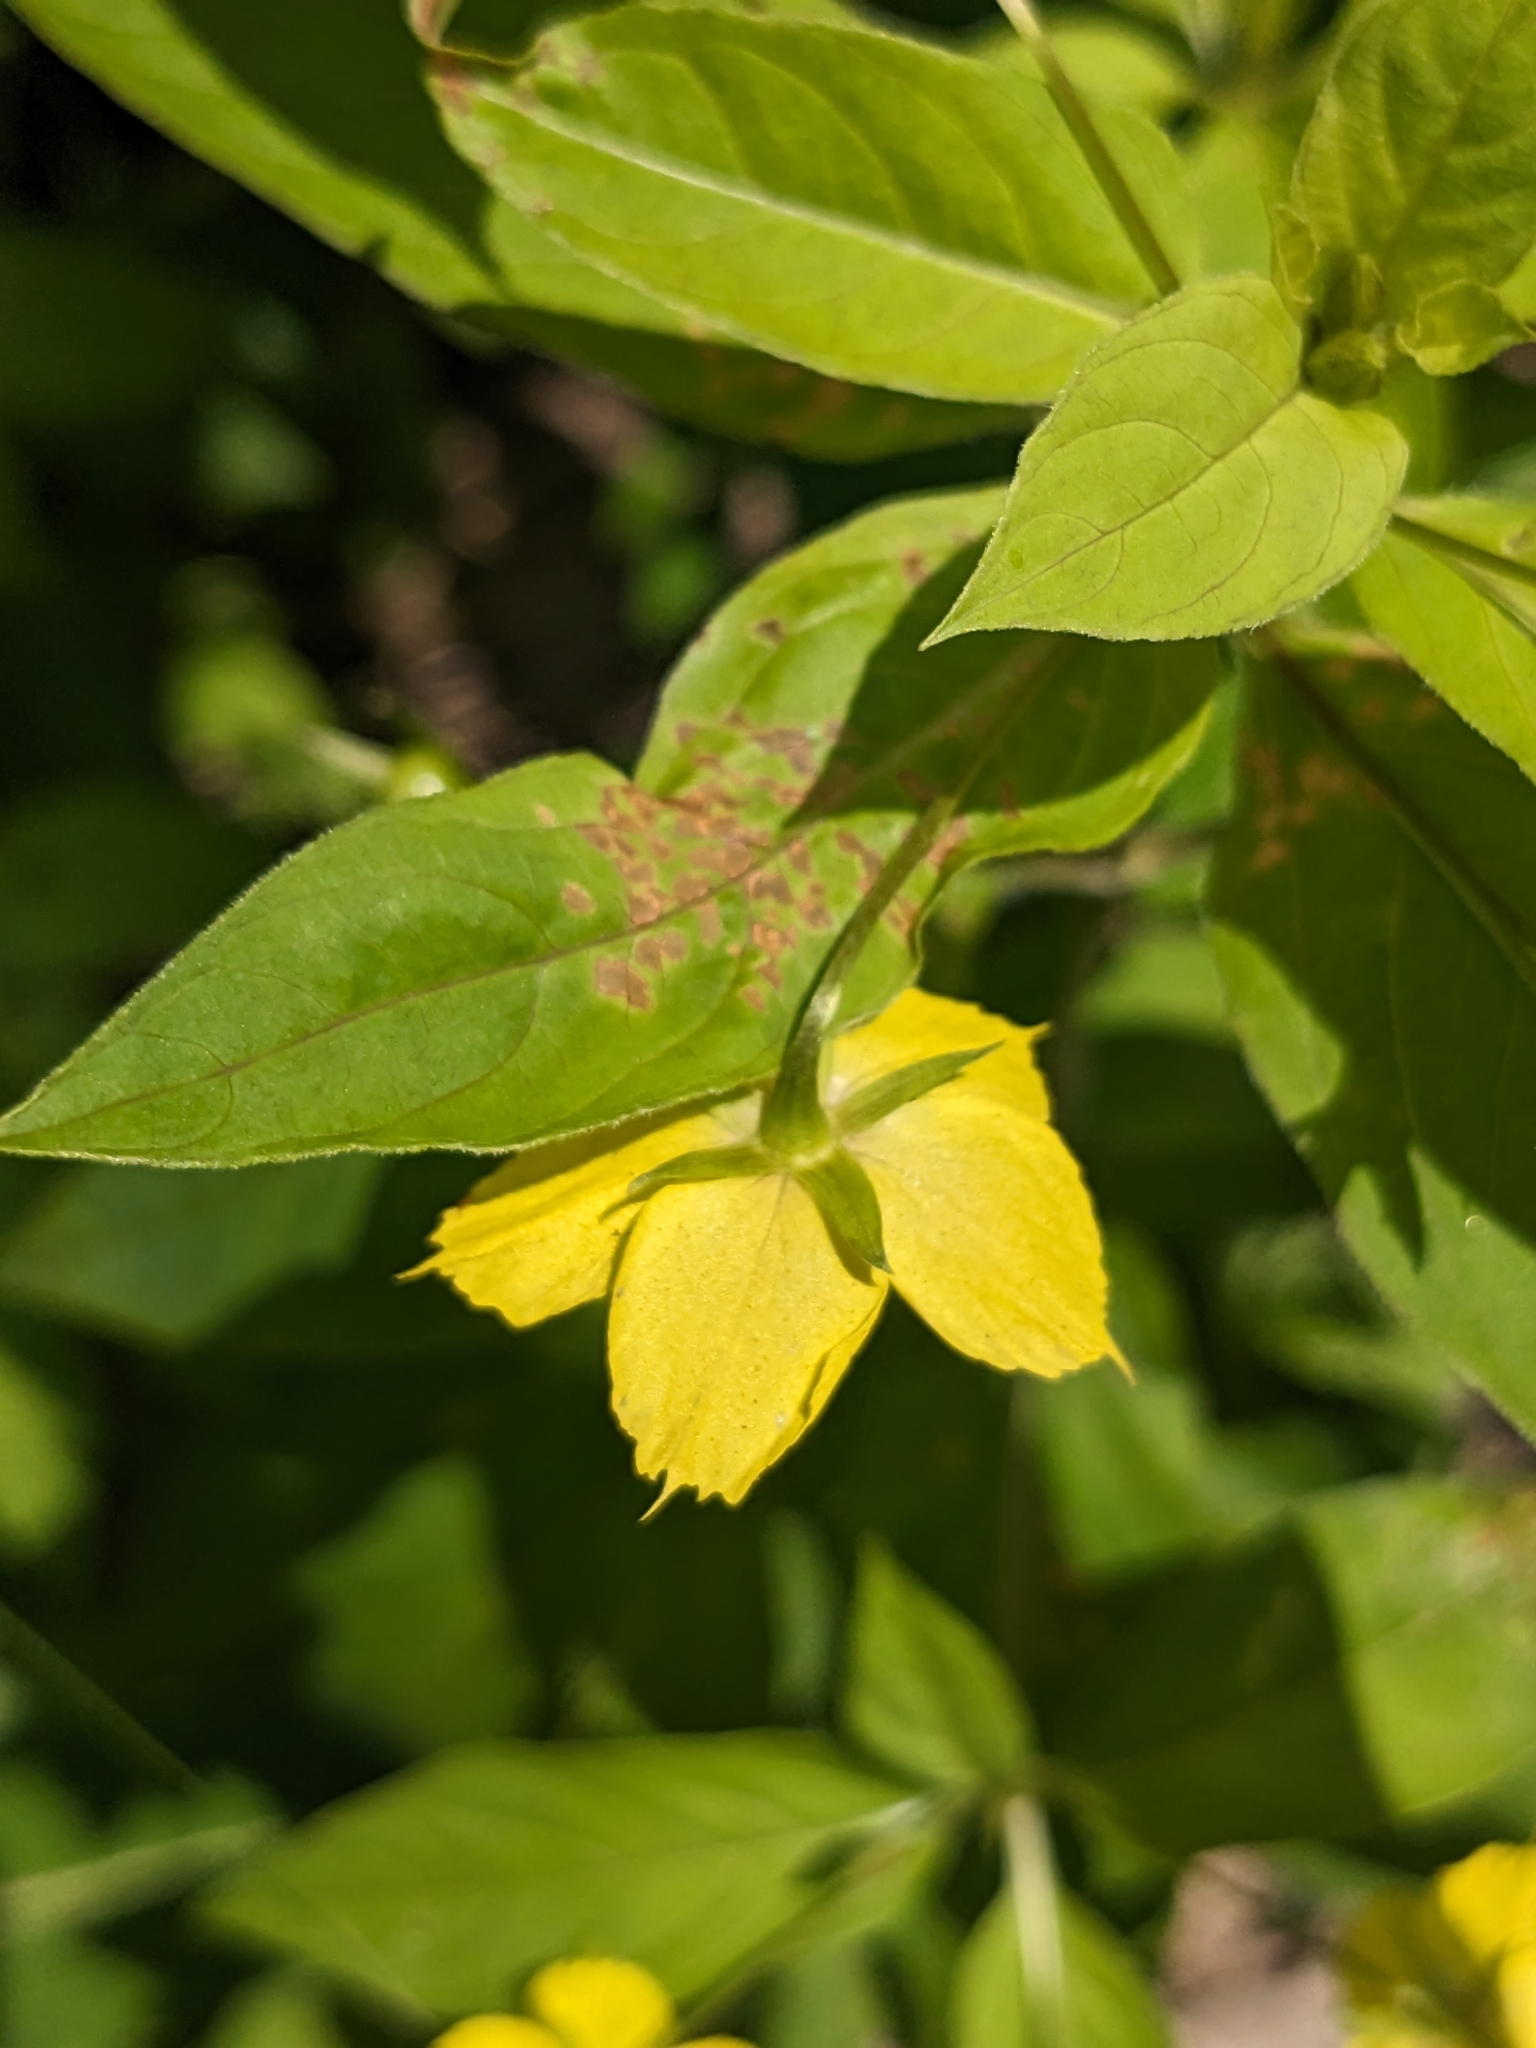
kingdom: Plantae
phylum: Tracheophyta
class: Magnoliopsida
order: Ericales
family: Primulaceae
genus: Lysimachia
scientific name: Lysimachia ciliata
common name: Fringed loosestrife
